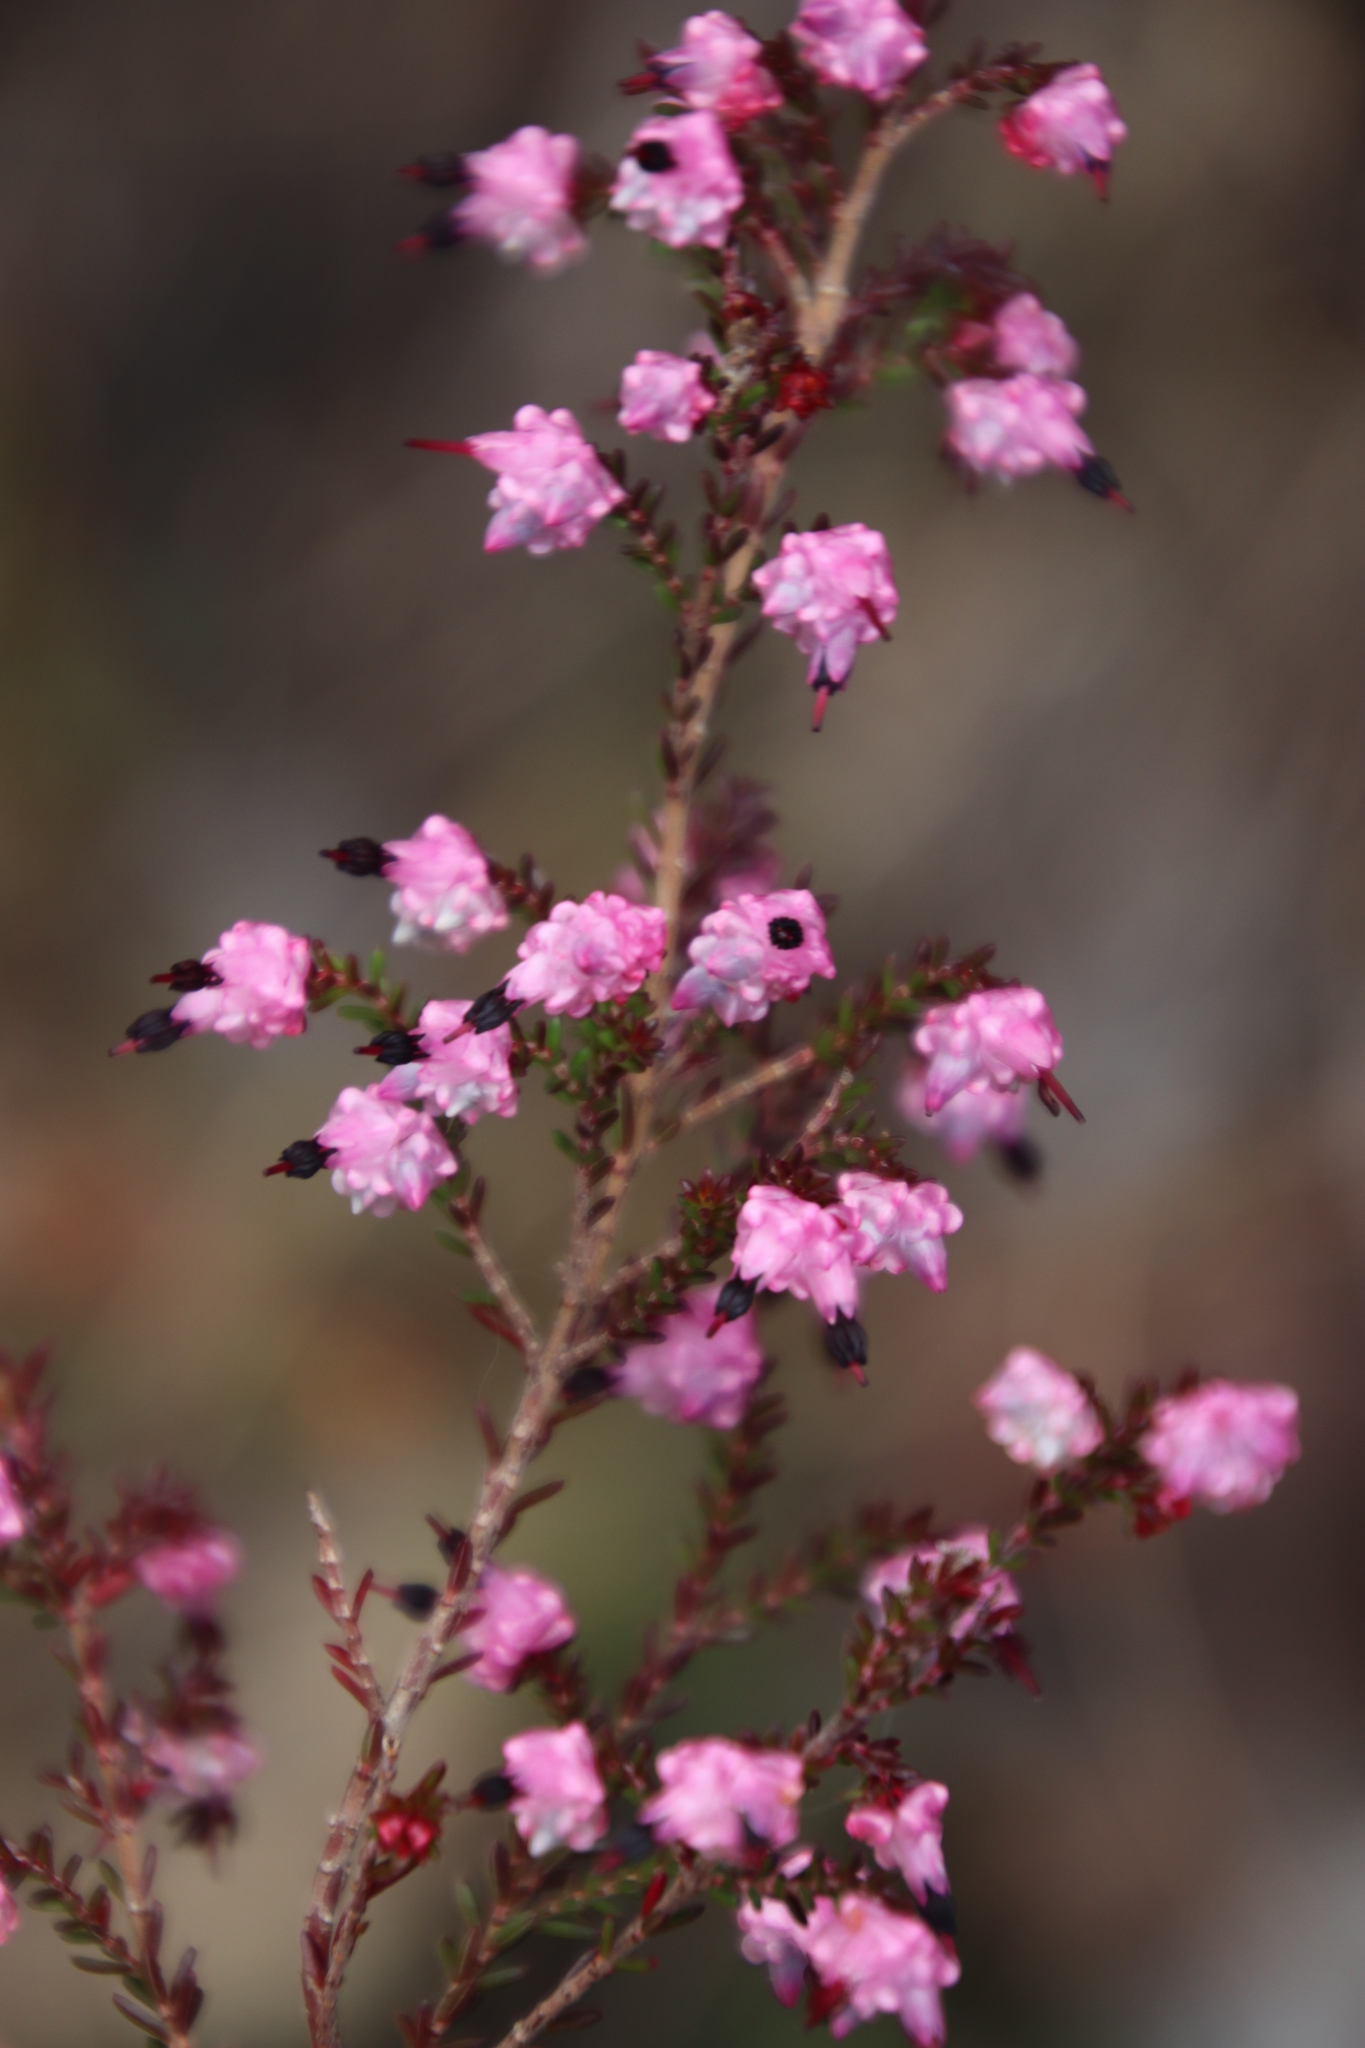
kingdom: Plantae
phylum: Tracheophyta
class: Magnoliopsida
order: Ericales
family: Ericaceae
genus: Erica
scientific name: Erica spumosa
